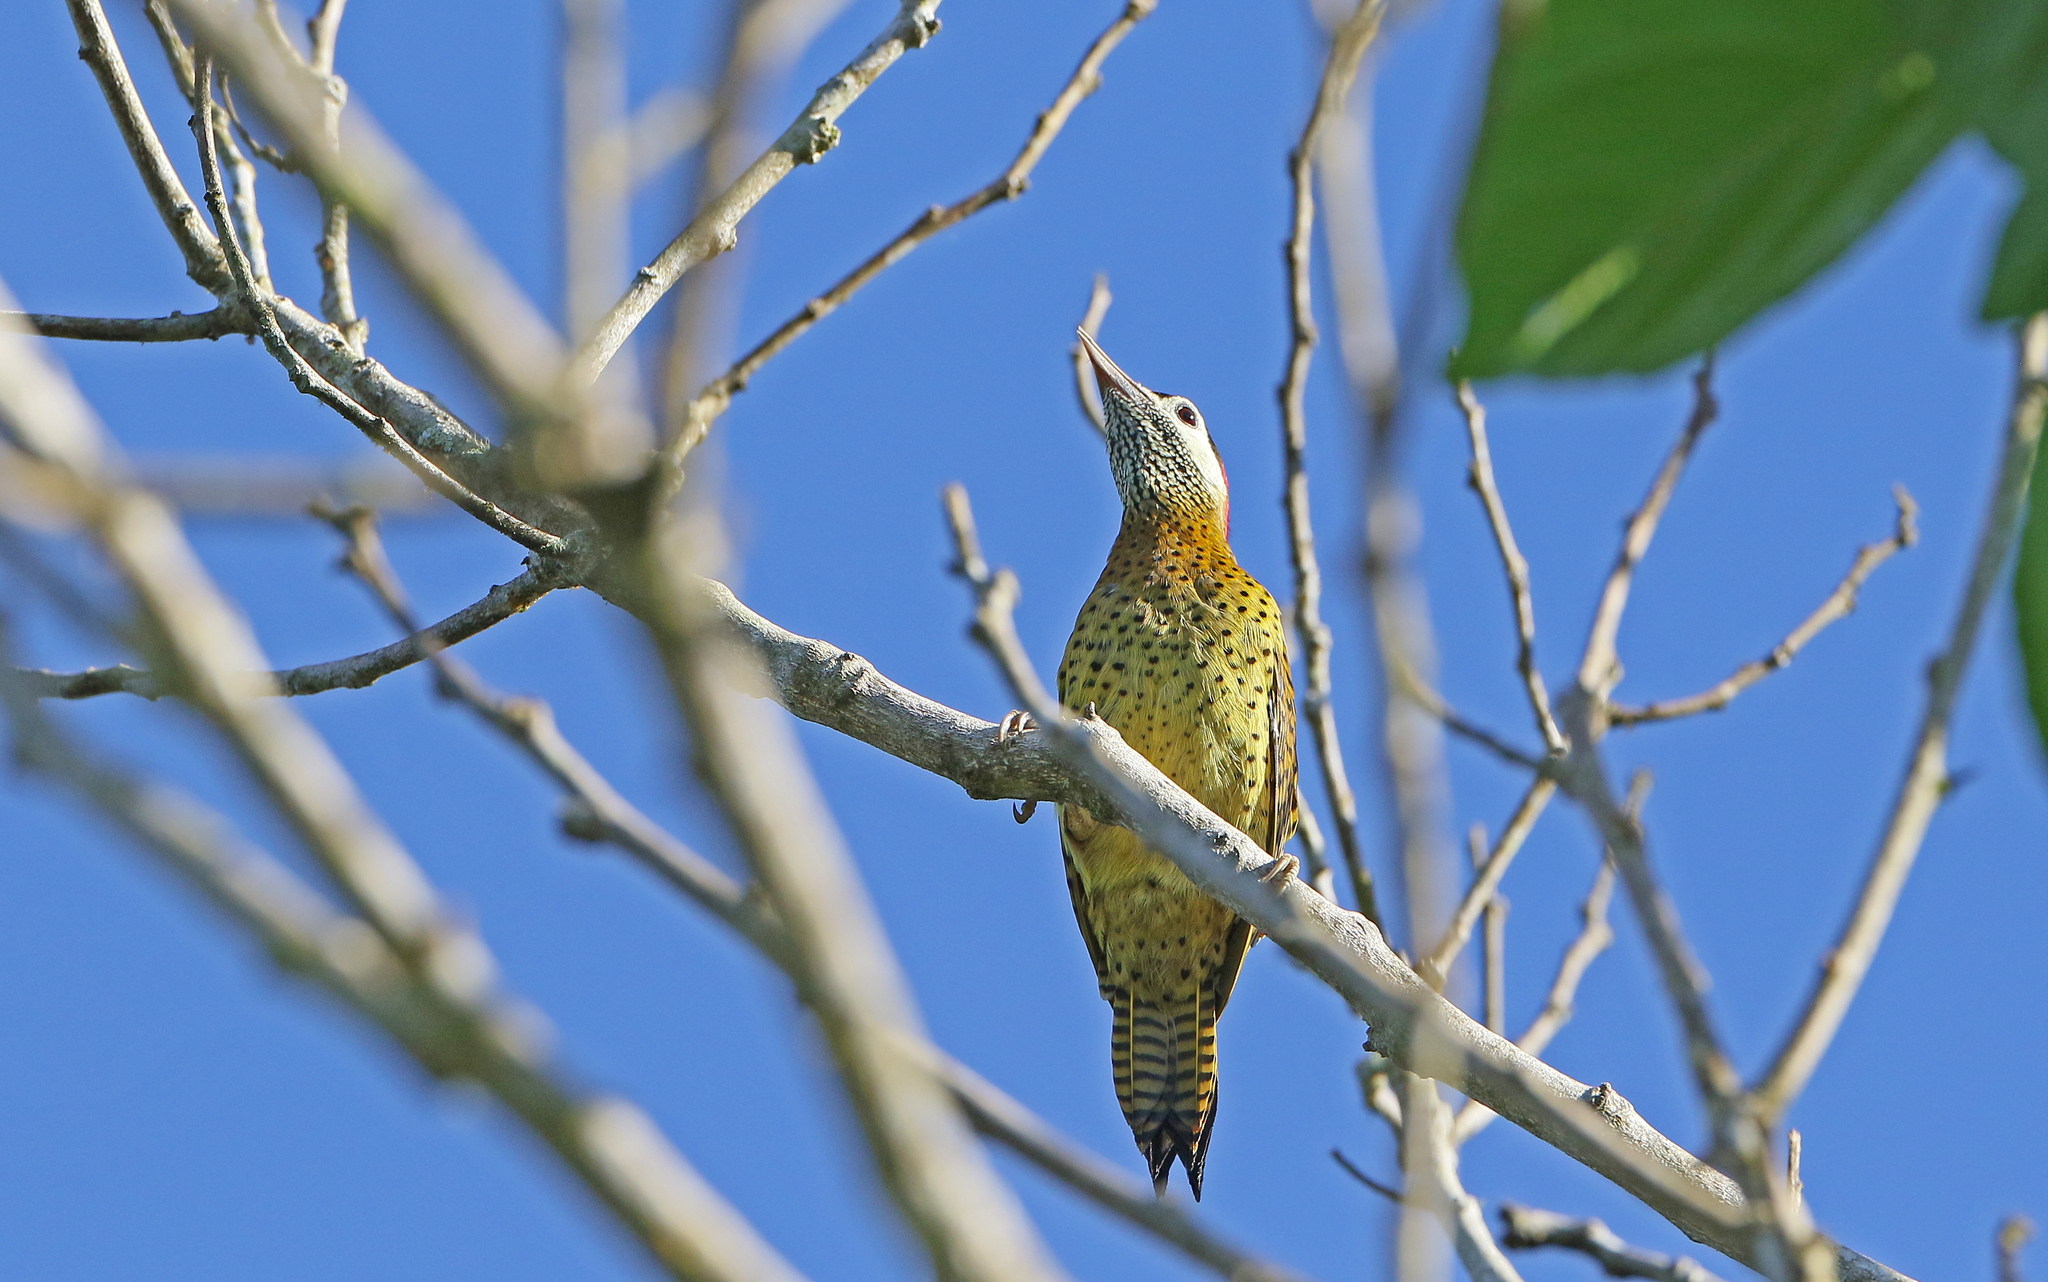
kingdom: Animalia
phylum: Chordata
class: Aves
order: Piciformes
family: Picidae
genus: Colaptes
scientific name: Colaptes punctigula
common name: Spot-breasted woodpecker
